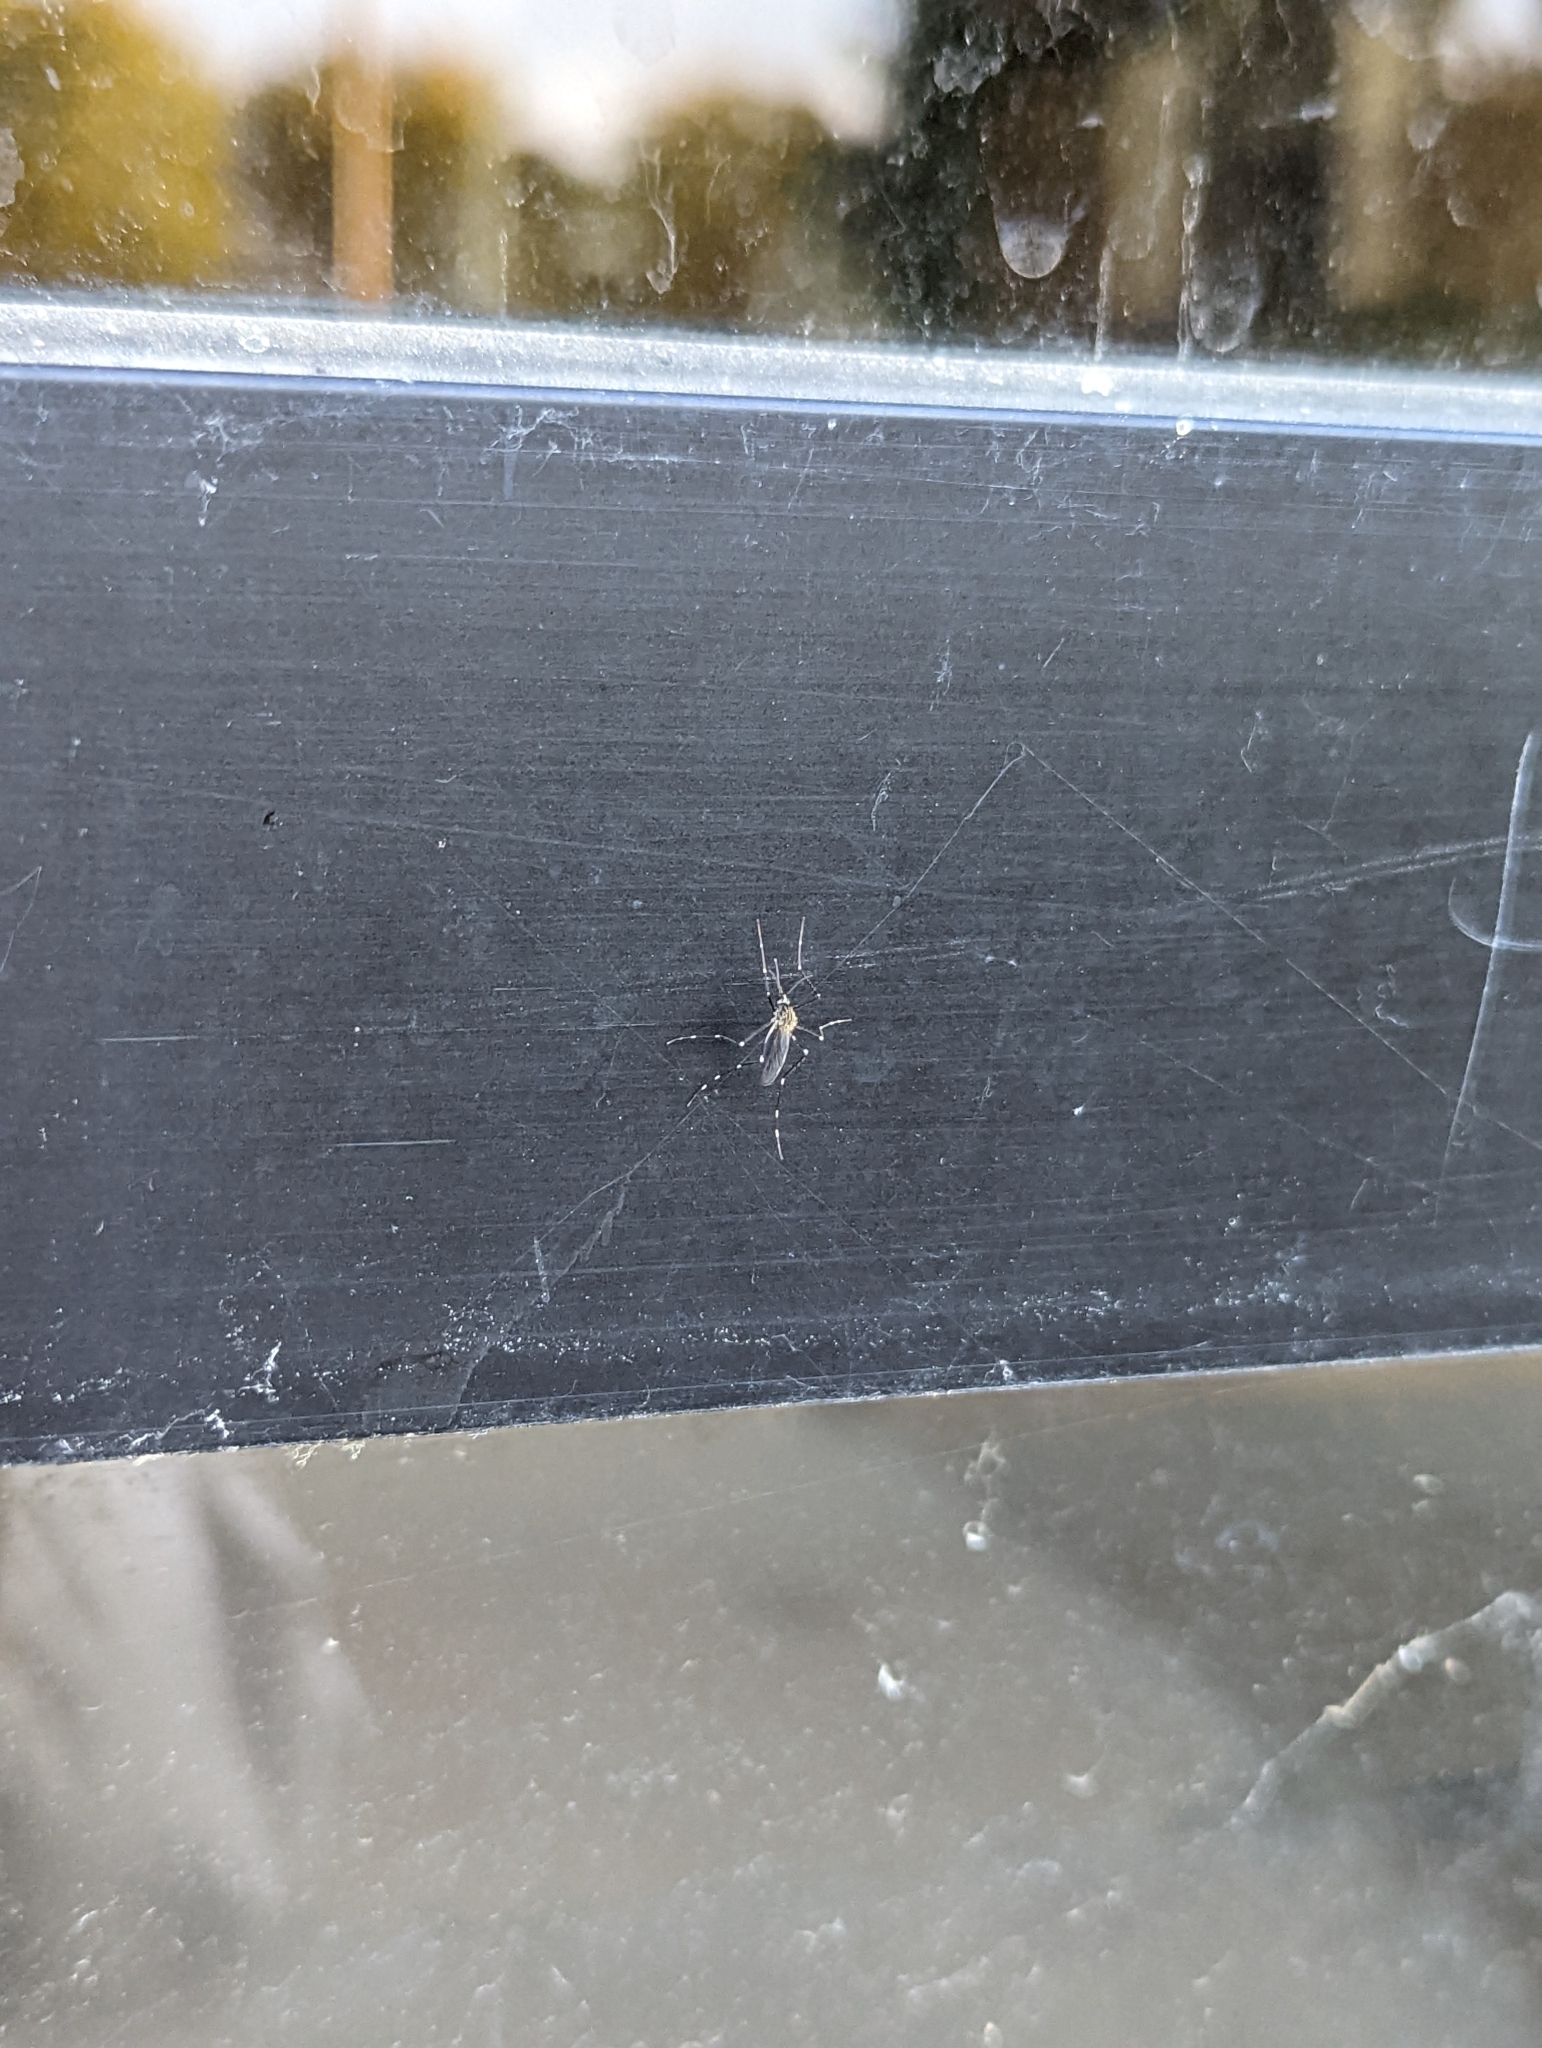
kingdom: Animalia
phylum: Arthropoda
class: Insecta
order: Diptera
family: Culicidae
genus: Aedes
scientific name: Aedes japonicus
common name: Asian bush mosquito
